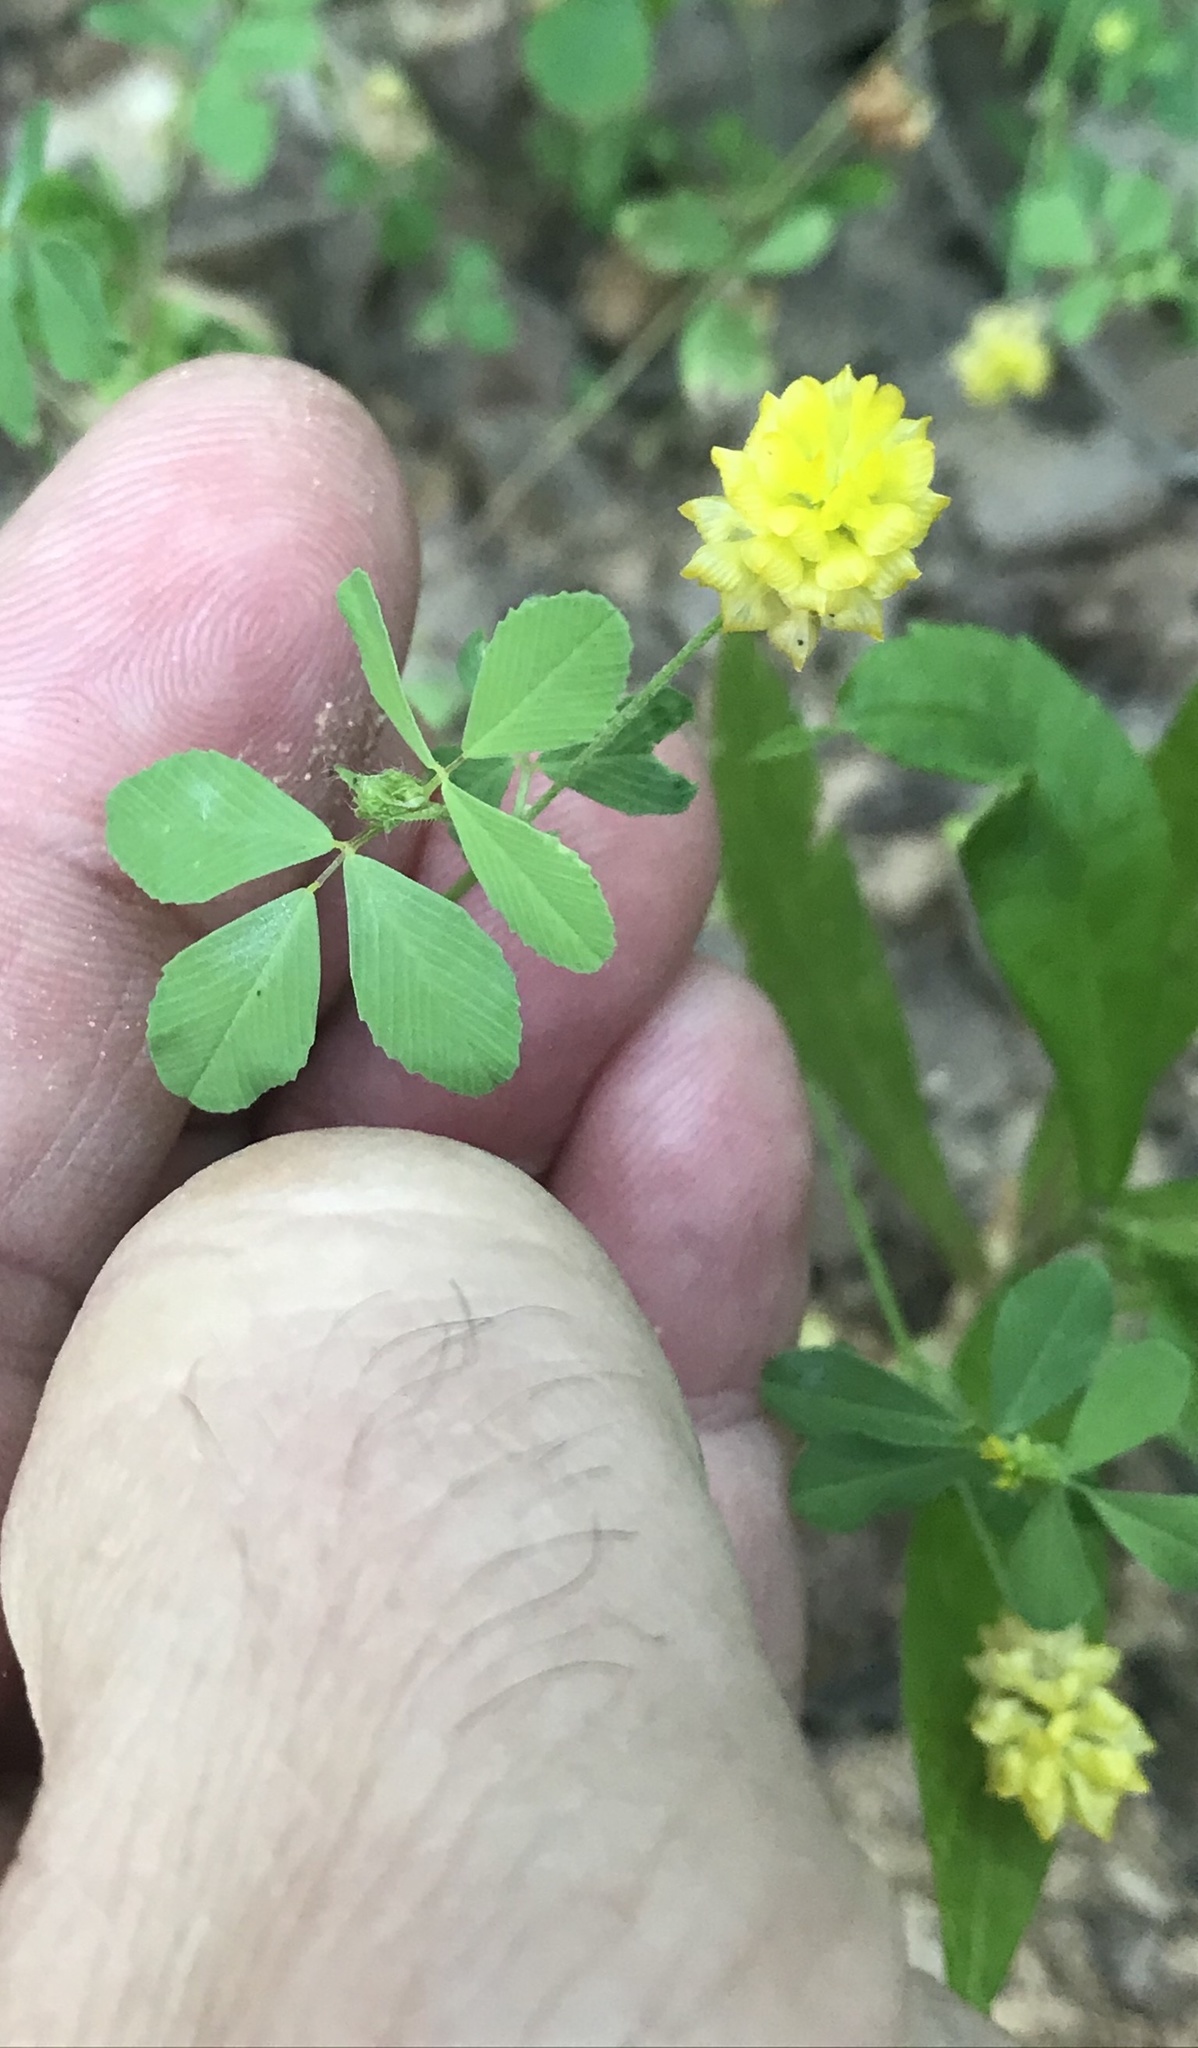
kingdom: Plantae
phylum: Tracheophyta
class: Magnoliopsida
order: Fabales
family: Fabaceae
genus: Trifolium
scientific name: Trifolium campestre
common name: Field clover
